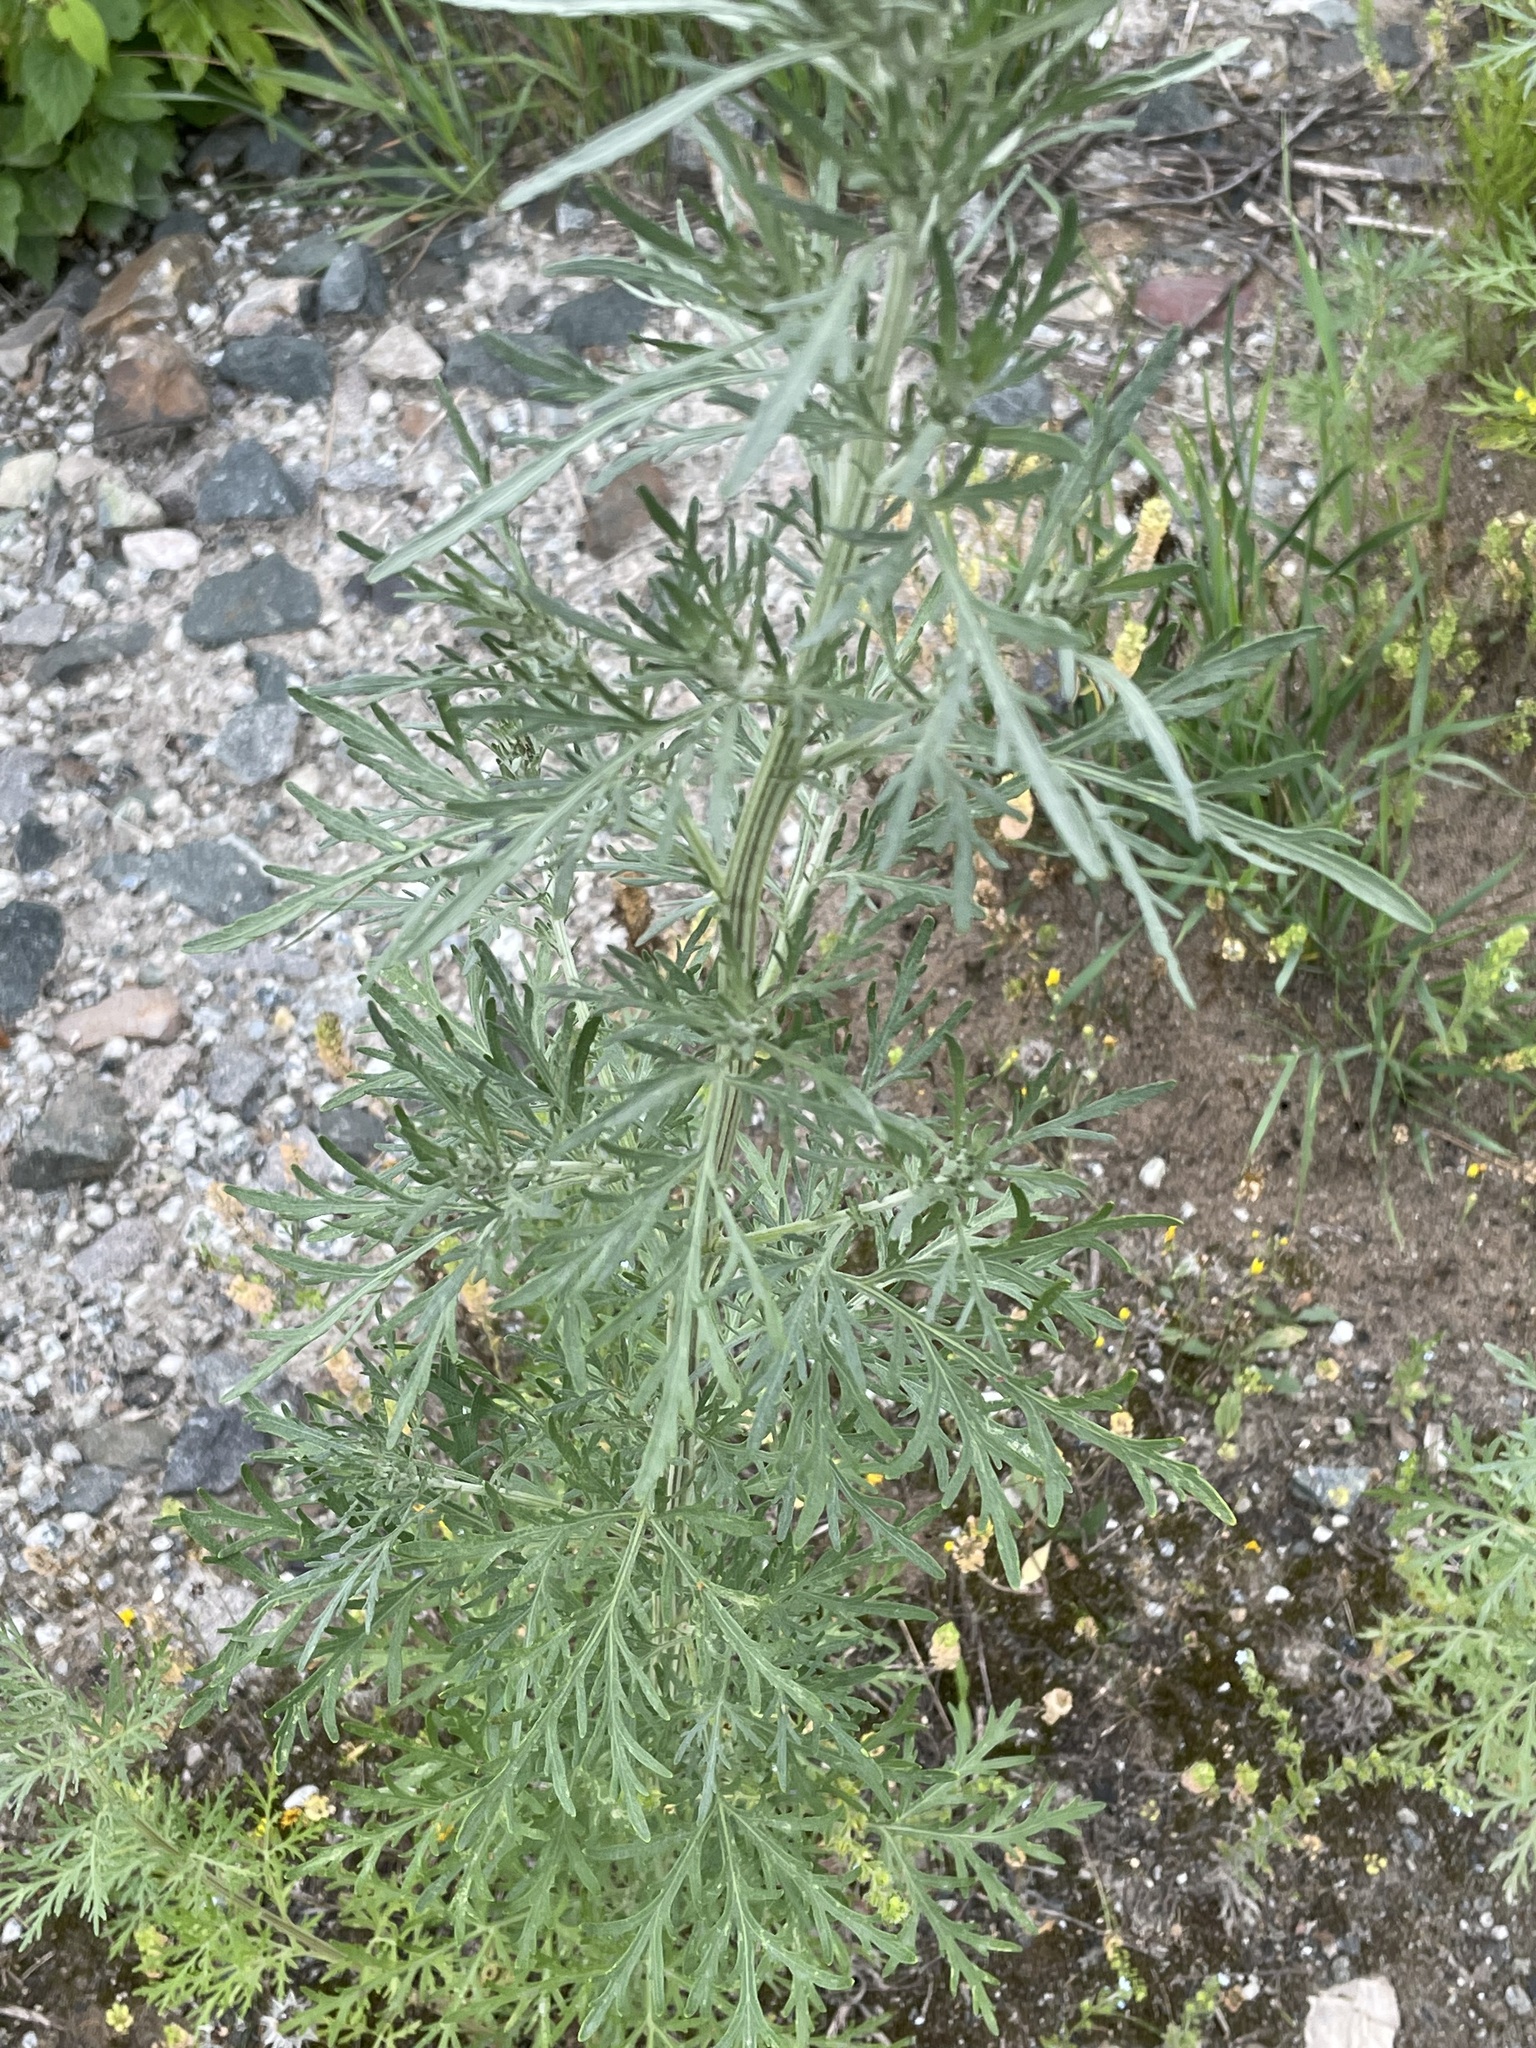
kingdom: Plantae
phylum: Tracheophyta
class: Magnoliopsida
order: Asterales
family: Asteraceae
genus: Artemisia
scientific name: Artemisia sieversiana
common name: Sieversian wormwood
